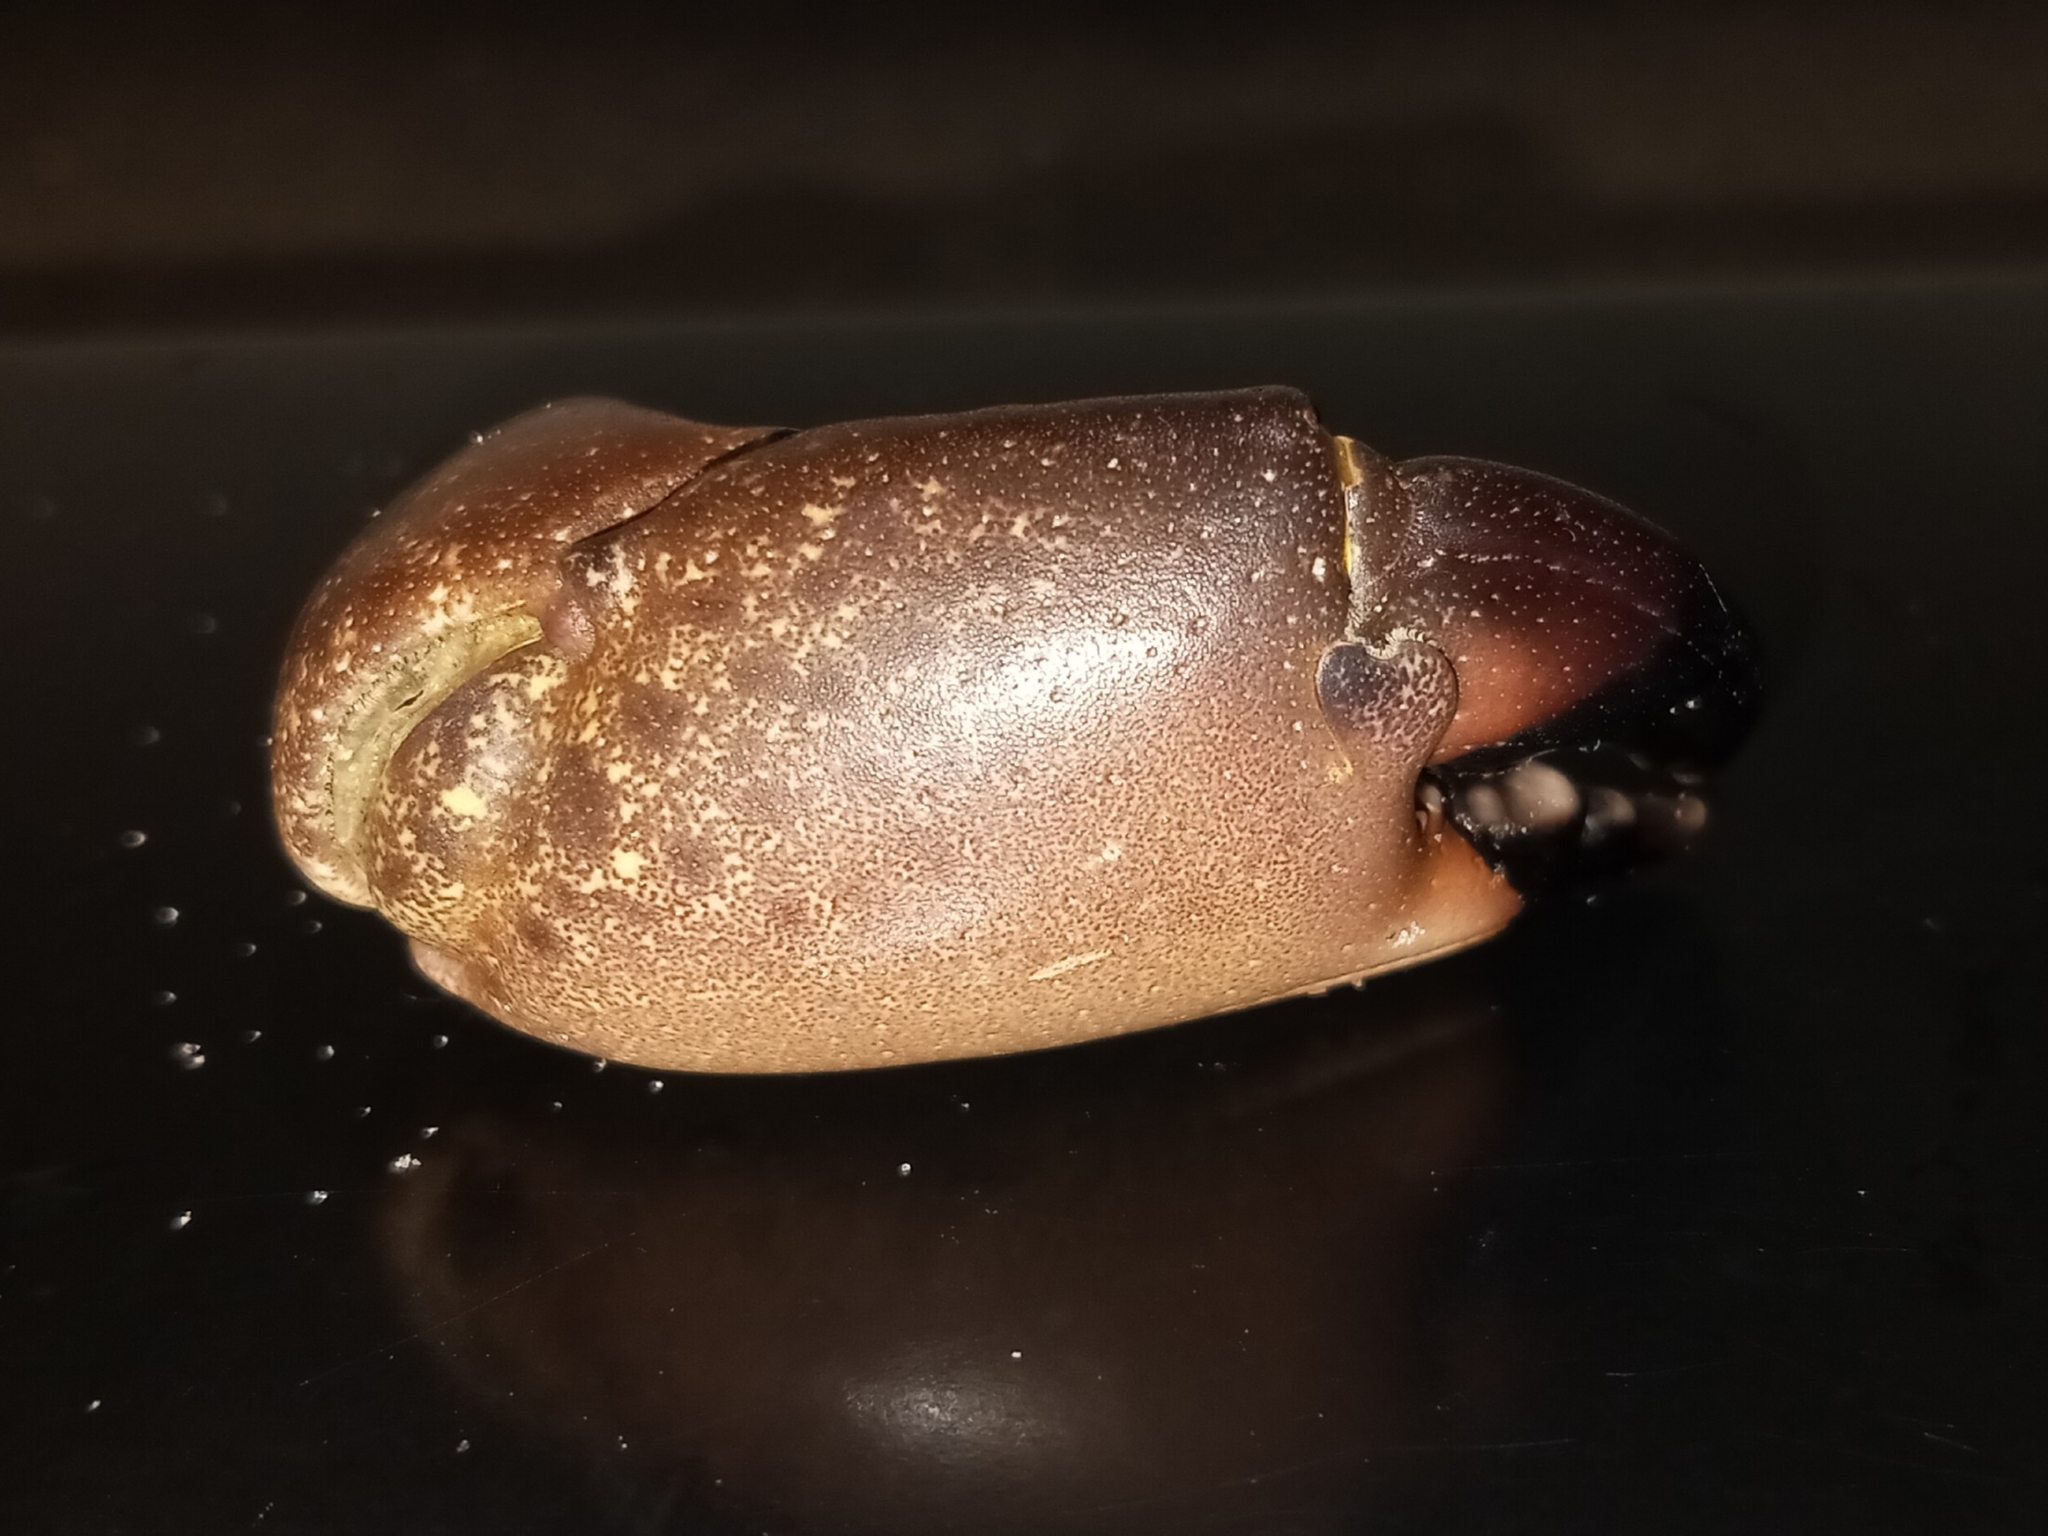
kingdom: Animalia
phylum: Arthropoda
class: Malacostraca
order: Decapoda
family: Menippidae
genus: Menippe
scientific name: Menippe mercenaria
